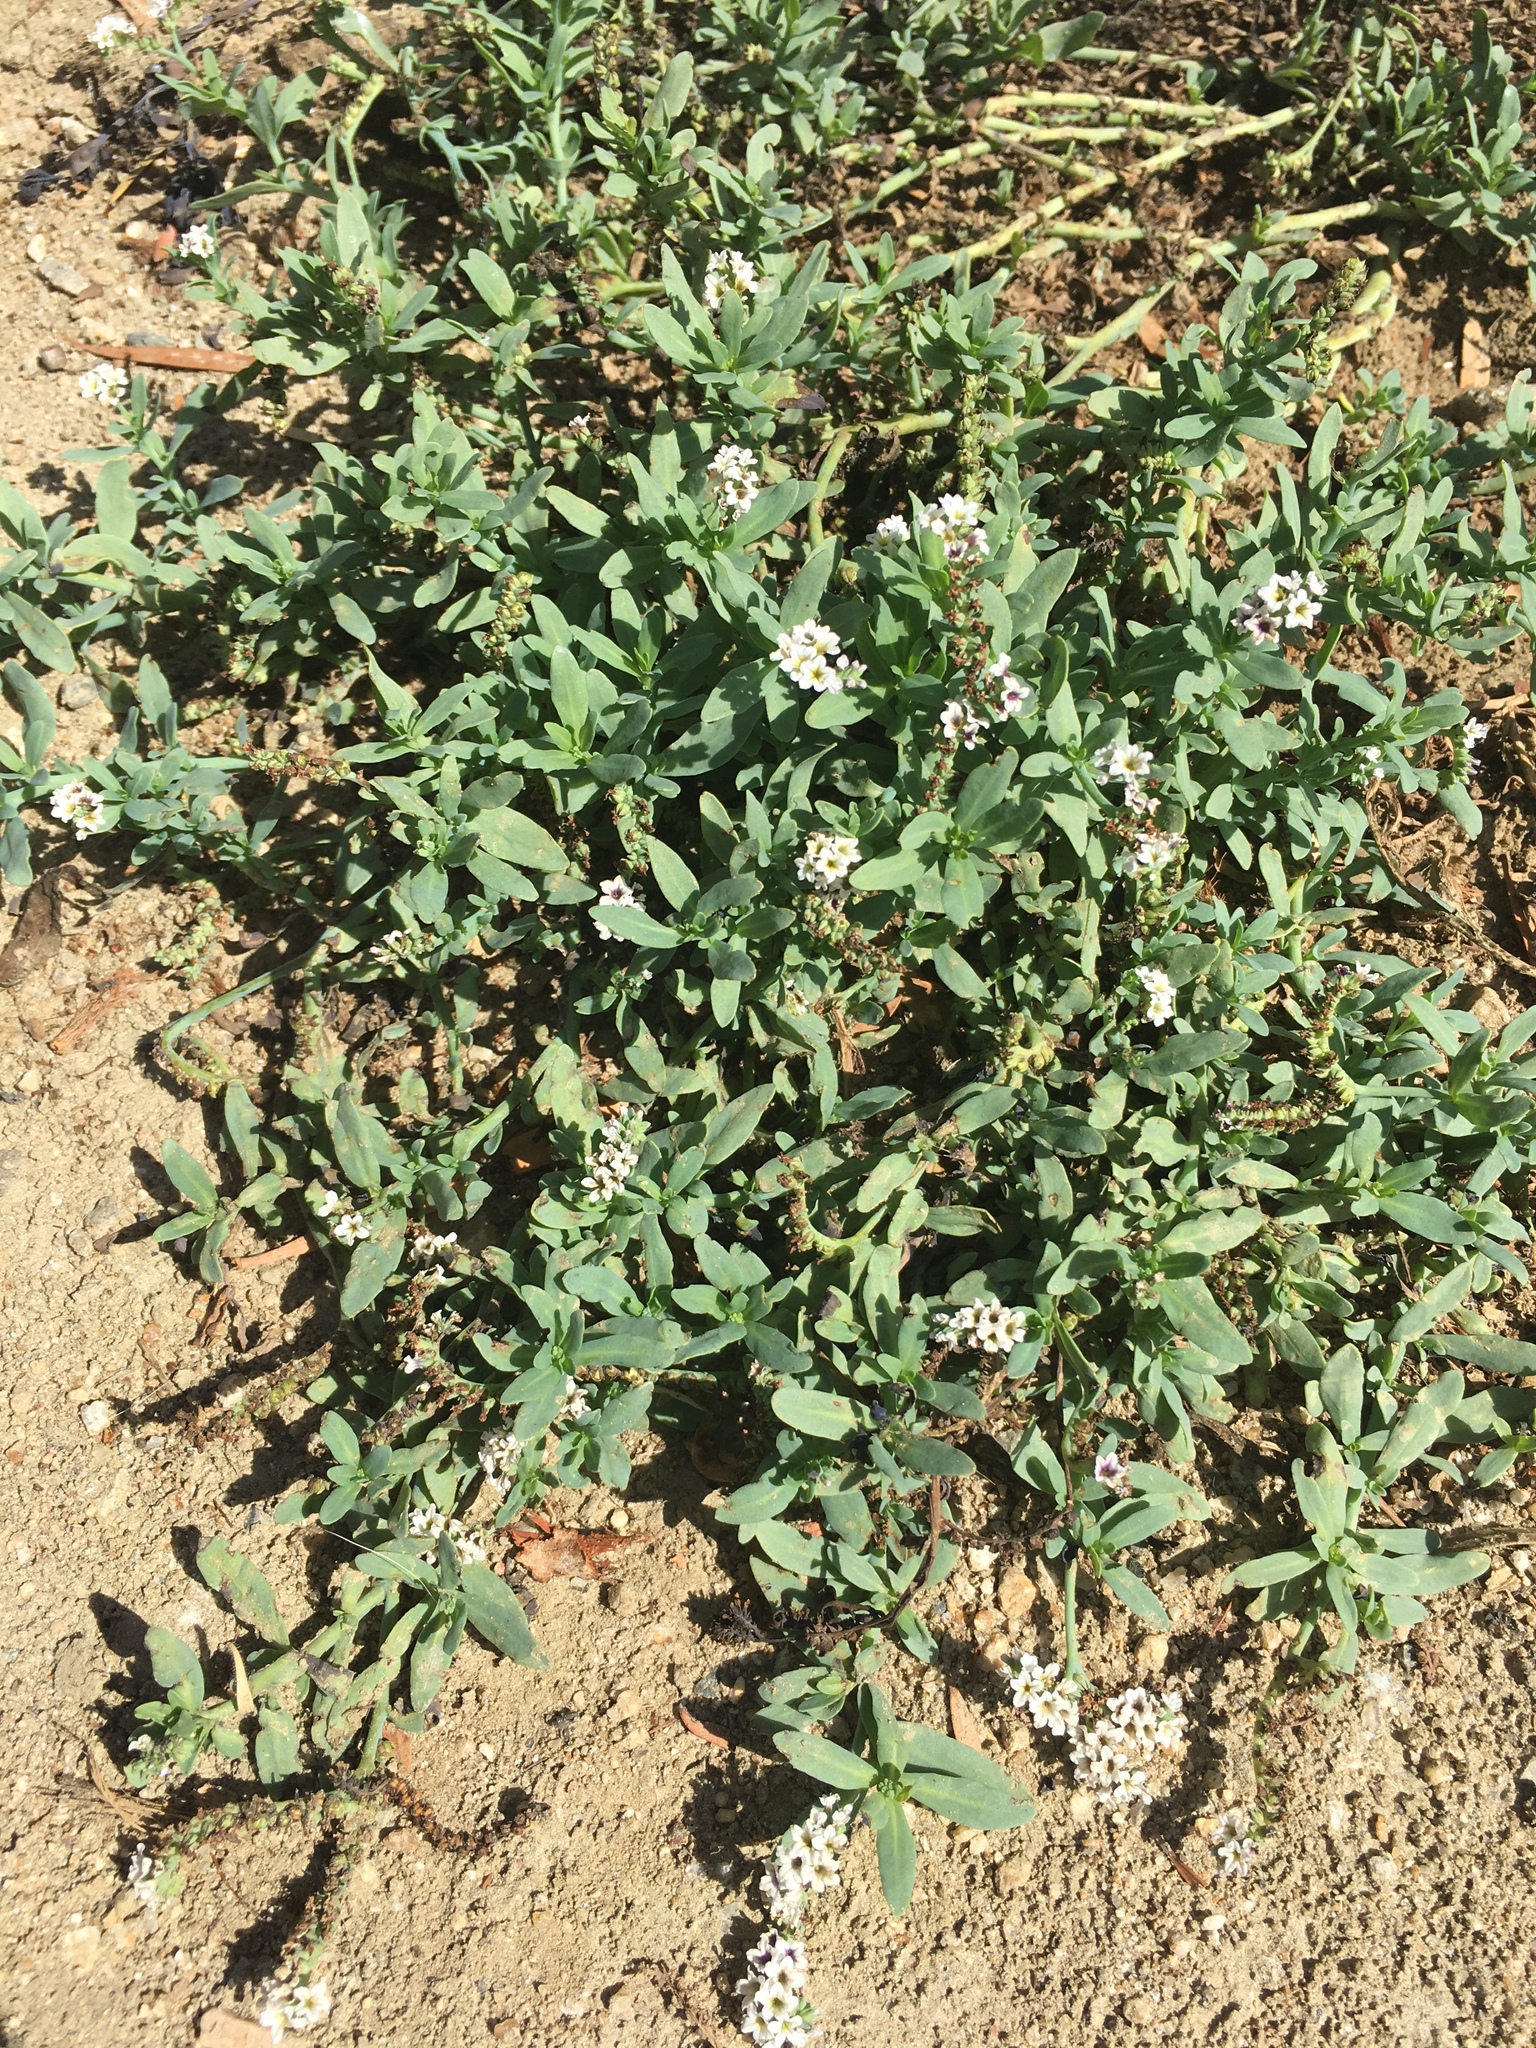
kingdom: Plantae
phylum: Tracheophyta
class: Magnoliopsida
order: Boraginales
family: Heliotropiaceae
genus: Heliotropium
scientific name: Heliotropium curassavicum
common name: Seaside heliotrope
